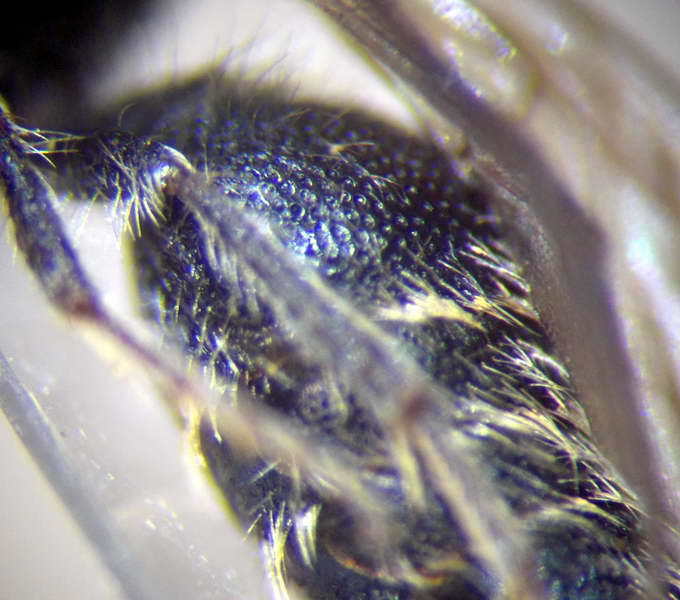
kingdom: Animalia
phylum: Arthropoda
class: Insecta
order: Hymenoptera
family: Mutillidae
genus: Smicromyrme
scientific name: Smicromyrme stepposa
